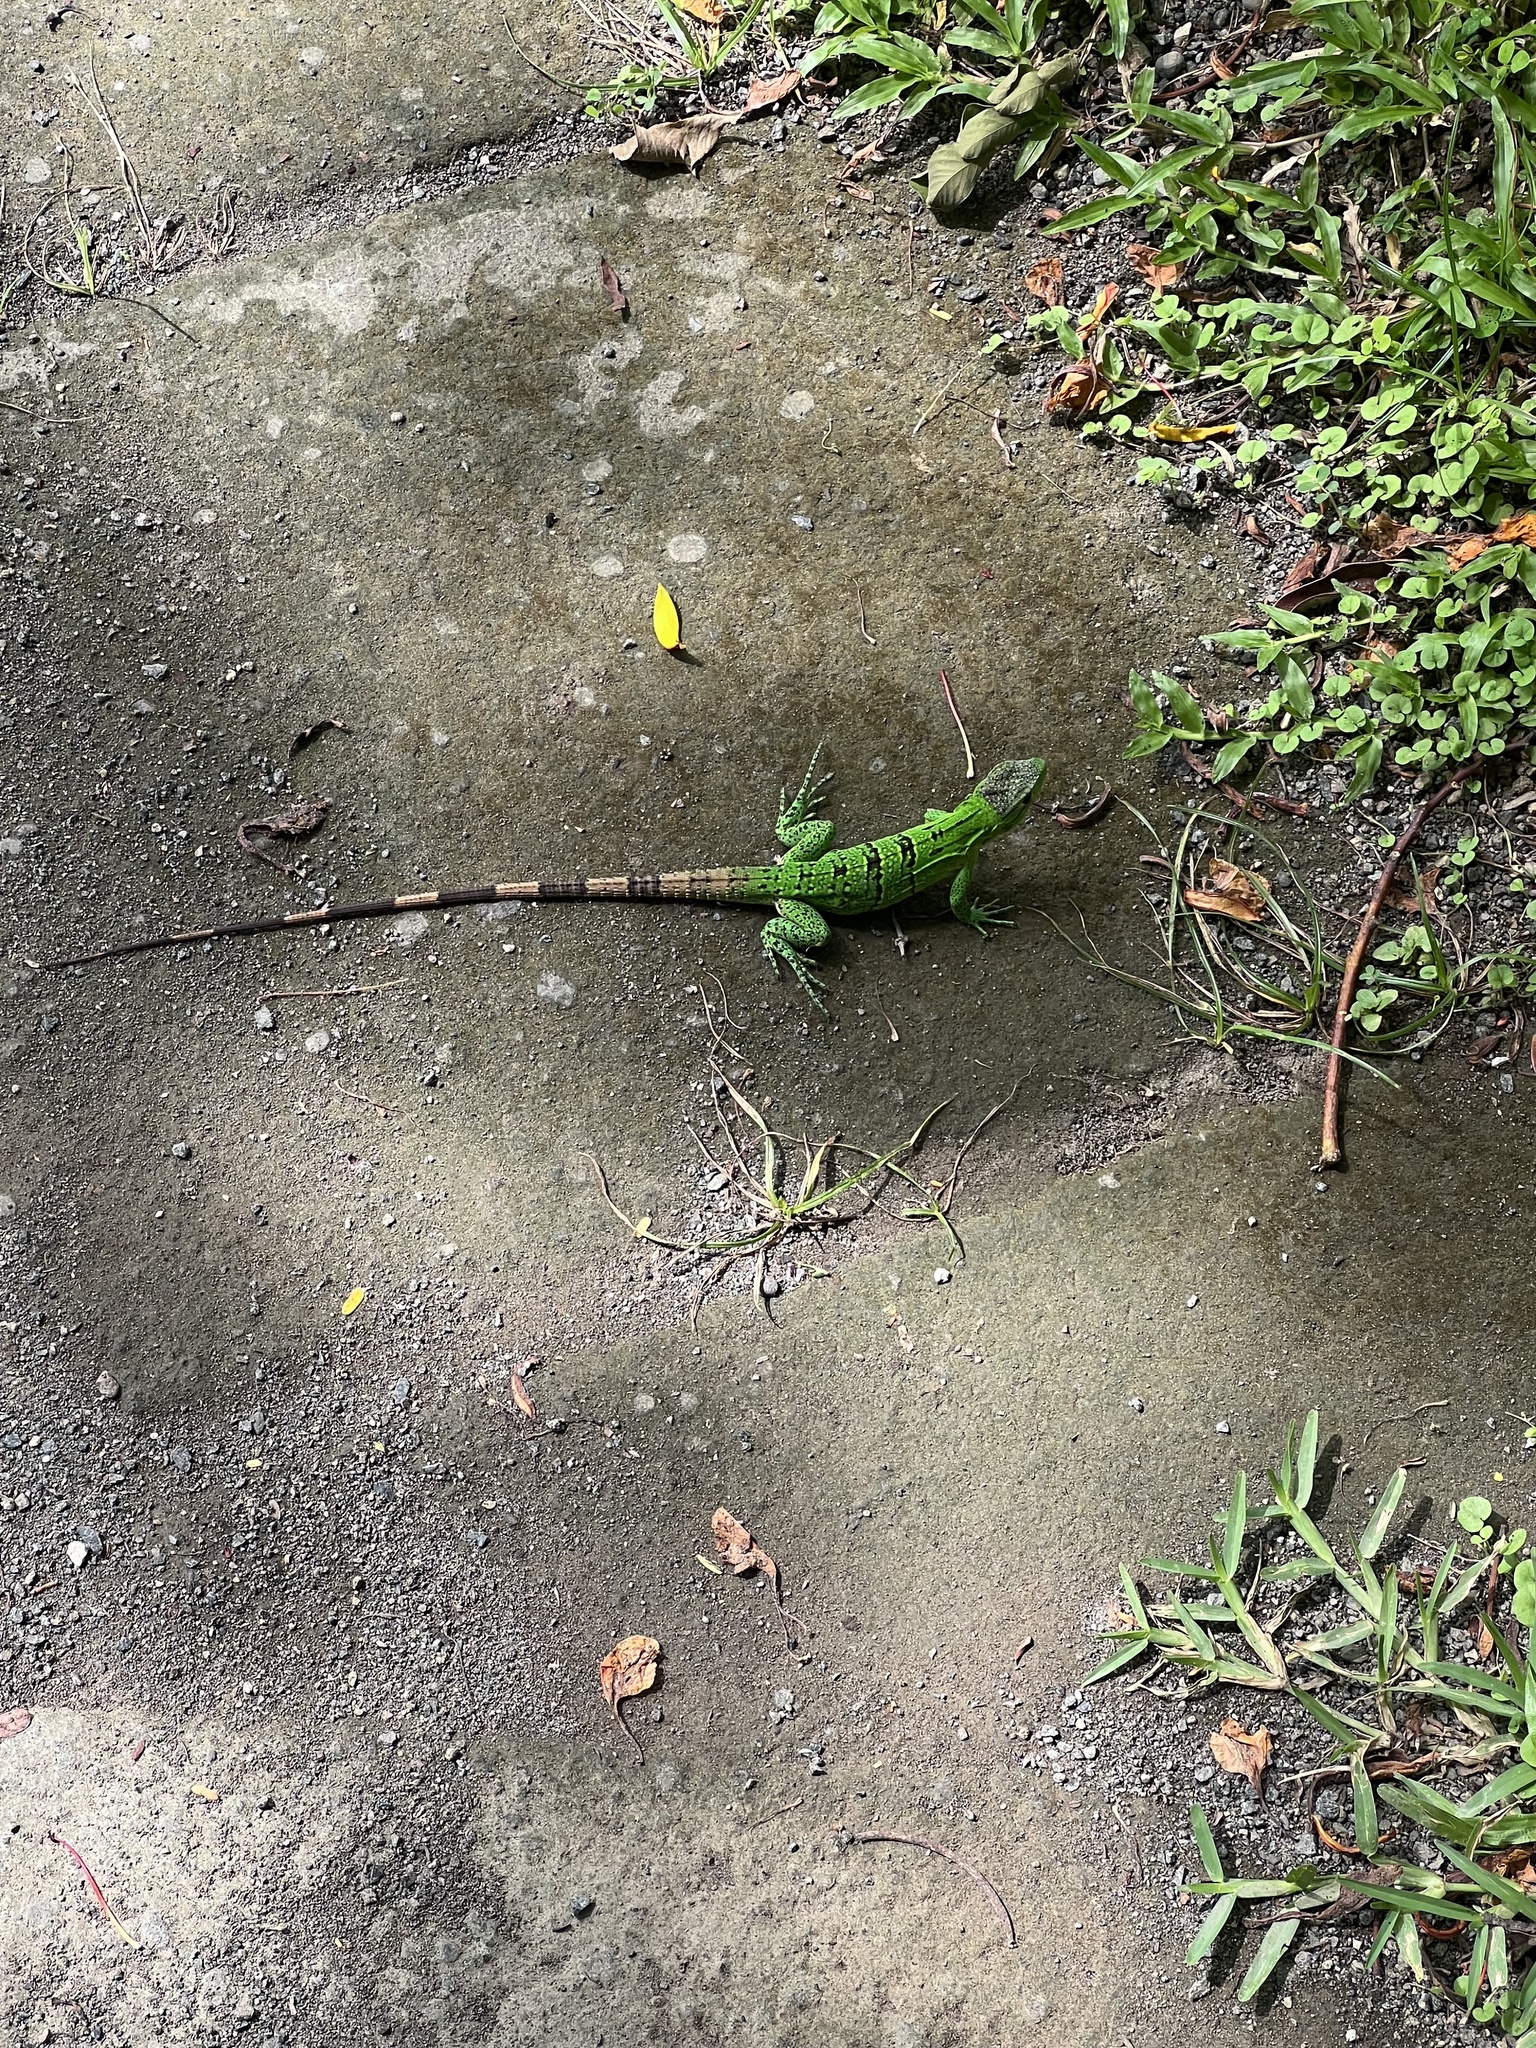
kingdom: Animalia
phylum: Chordata
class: Squamata
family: Iguanidae
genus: Ctenosaura
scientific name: Ctenosaura similis
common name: Black spiny-tailed iguana
